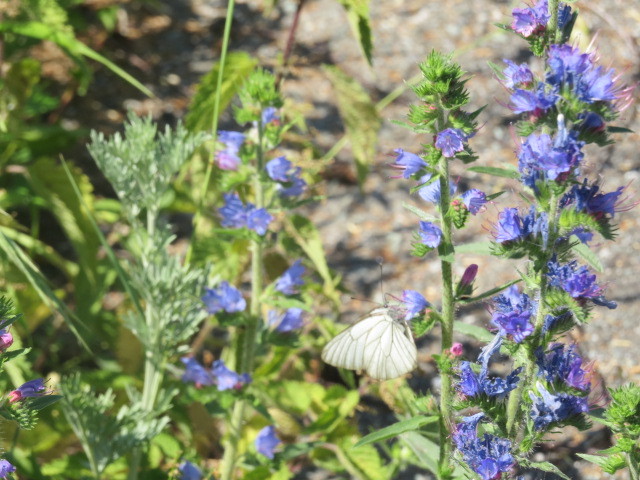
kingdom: Animalia
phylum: Arthropoda
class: Insecta
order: Lepidoptera
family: Pieridae
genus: Aporia
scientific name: Aporia crataegi
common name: Black-veined white
